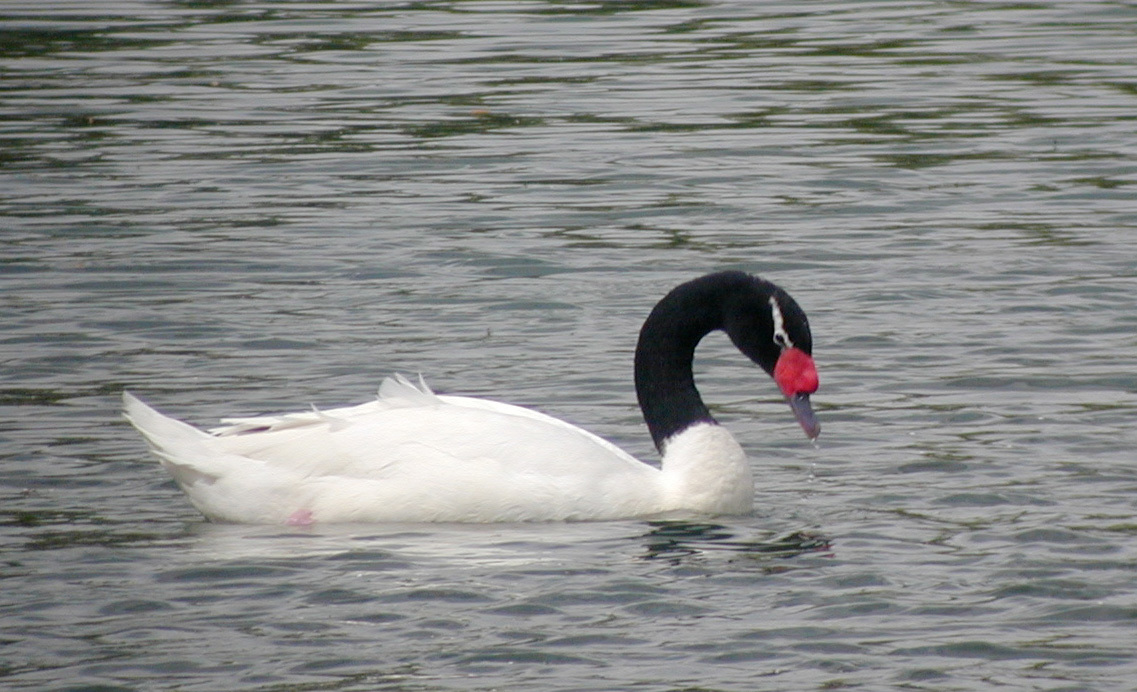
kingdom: Animalia
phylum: Chordata
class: Aves
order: Anseriformes
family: Anatidae
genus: Cygnus
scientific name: Cygnus melancoryphus
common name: Black-necked swan
